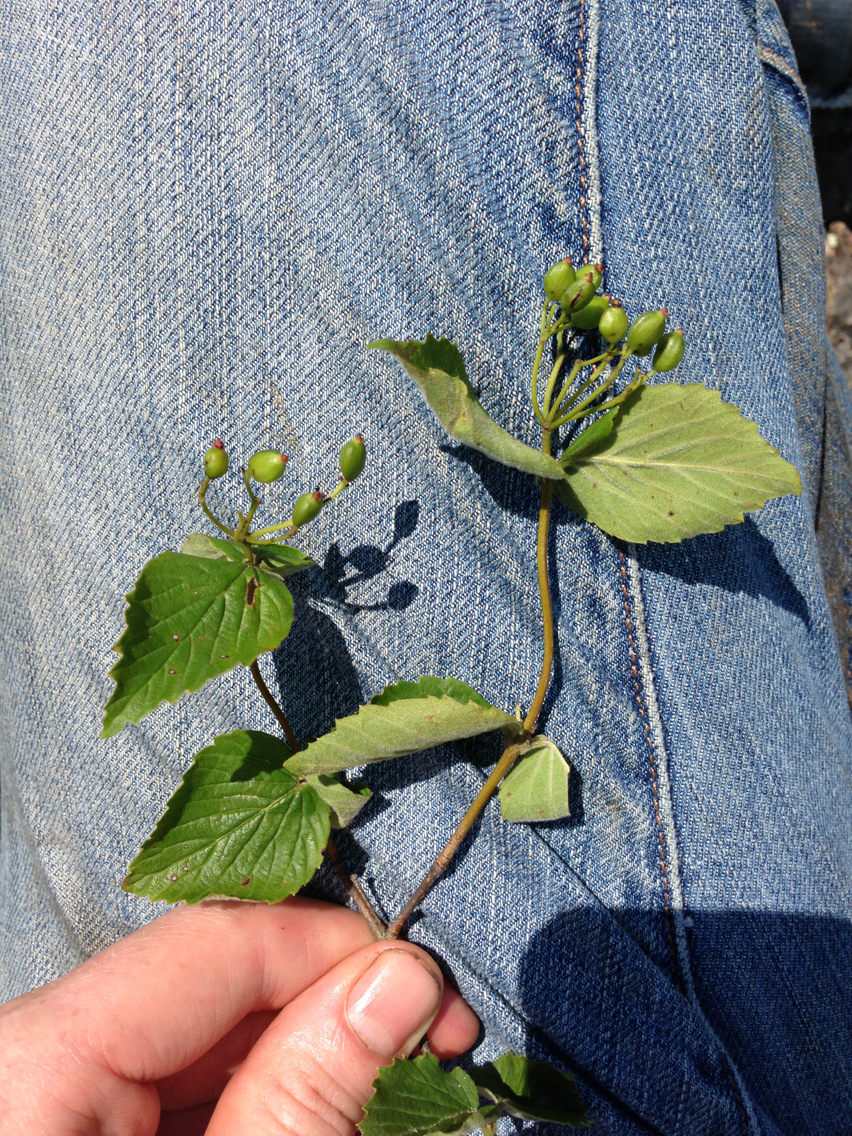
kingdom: Plantae
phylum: Tracheophyta
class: Magnoliopsida
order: Dipsacales
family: Viburnaceae
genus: Viburnum
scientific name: Viburnum rafinesqueanum
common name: Downy arrow-wood
